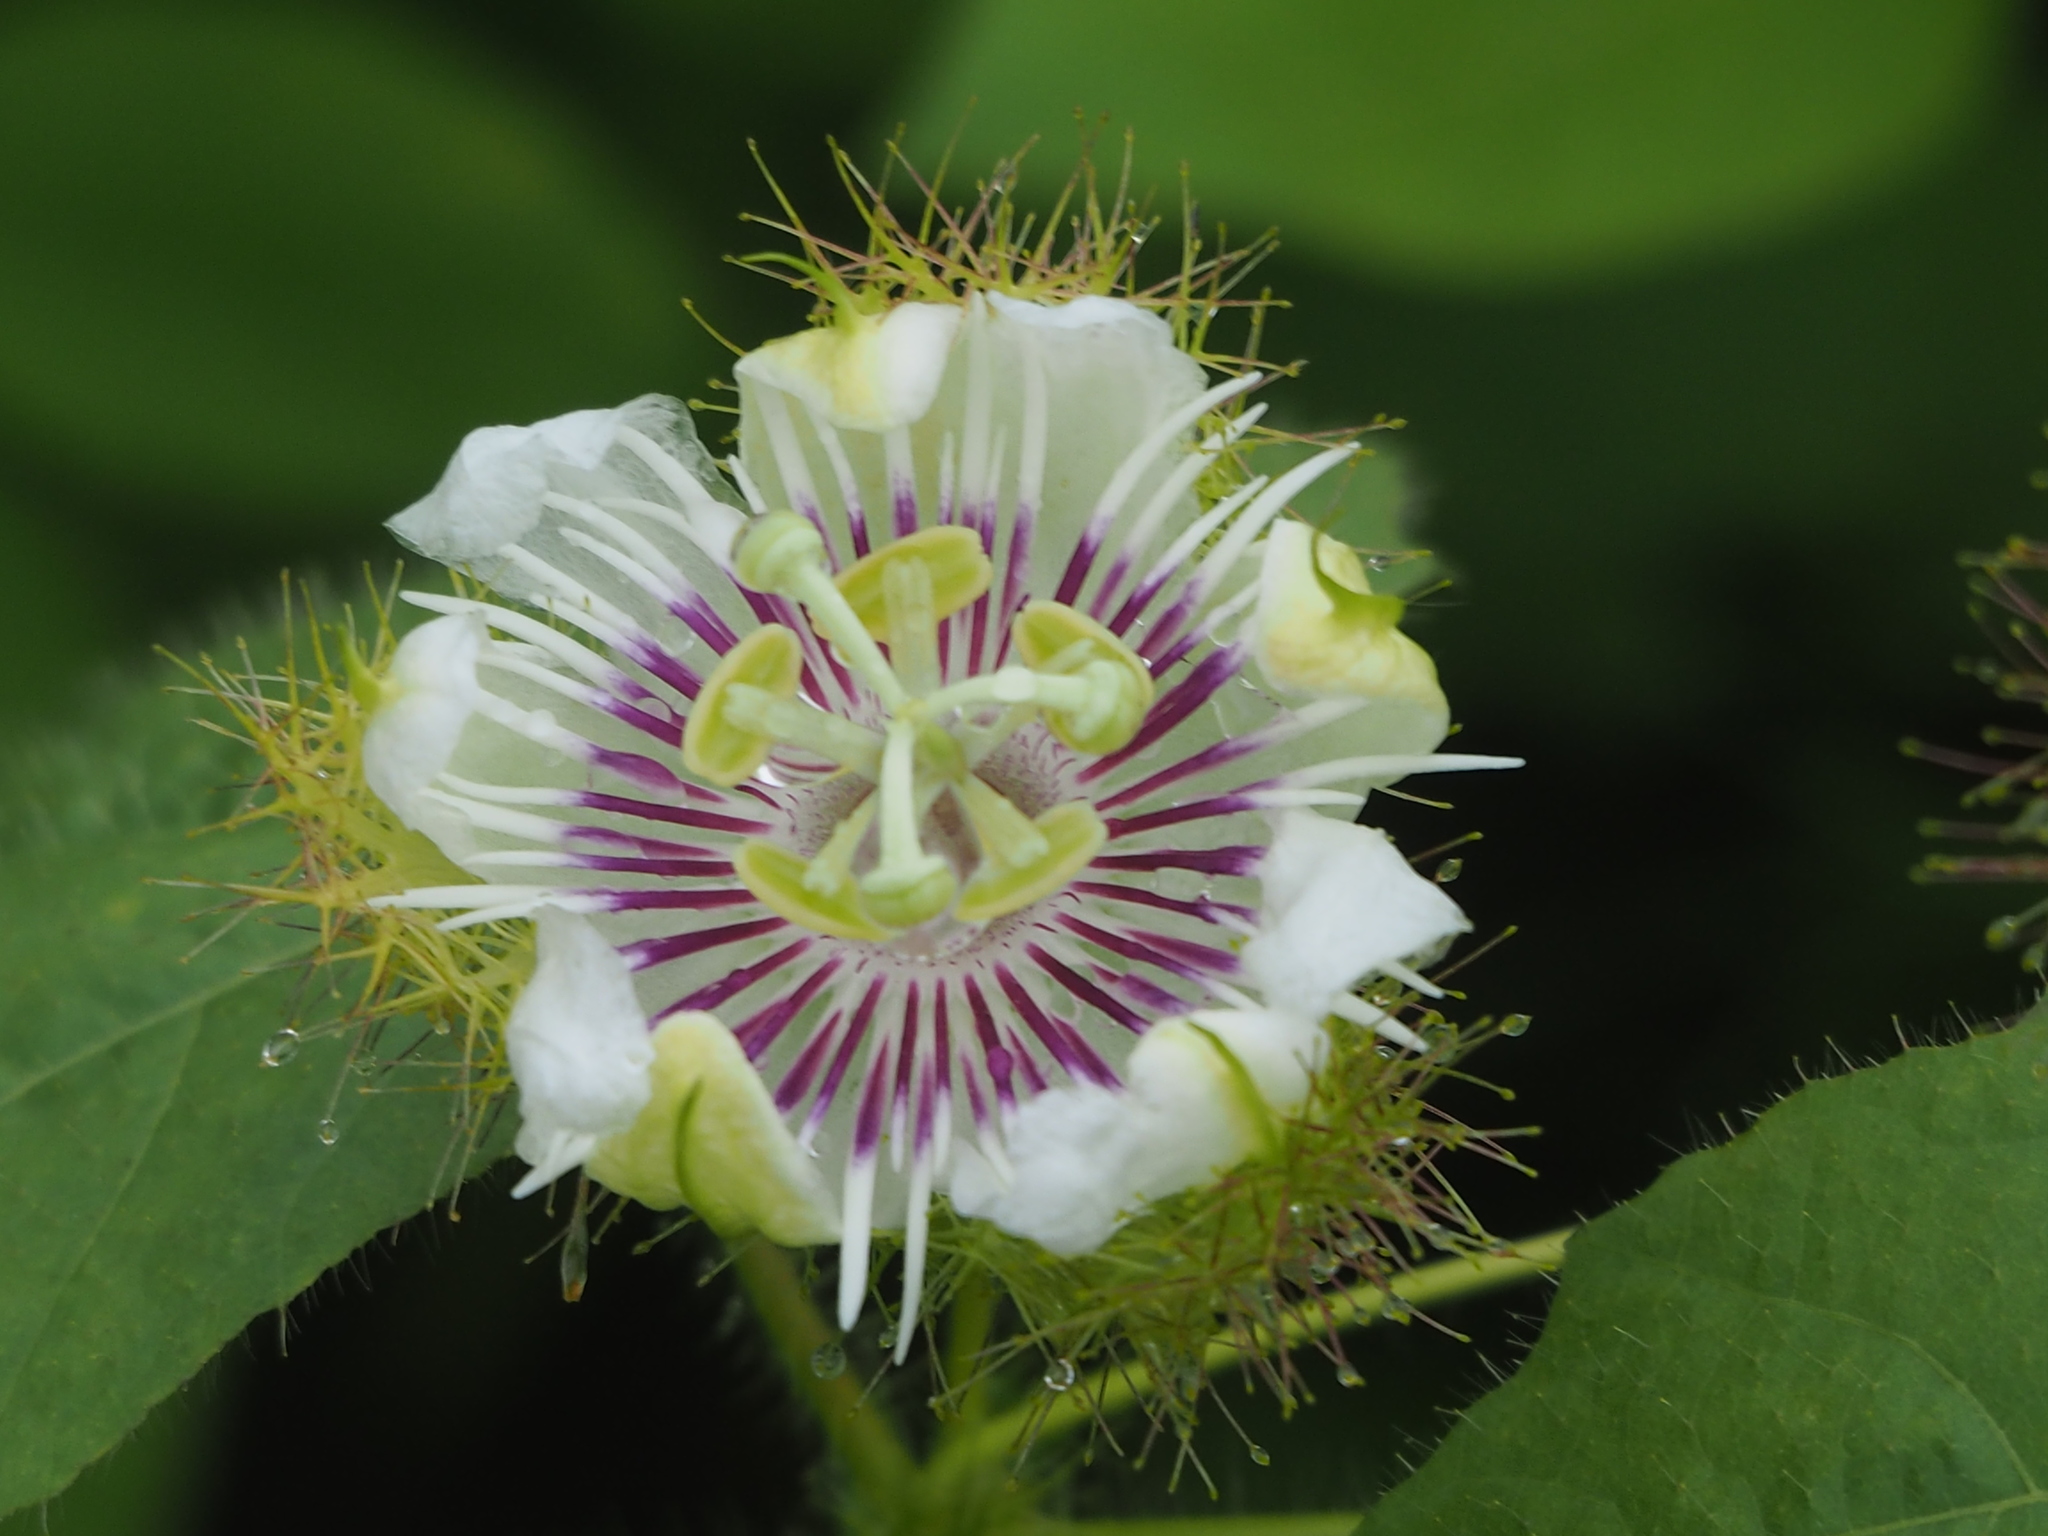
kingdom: Plantae
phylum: Tracheophyta
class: Magnoliopsida
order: Malpighiales
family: Passifloraceae
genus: Passiflora
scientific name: Passiflora vesicaria
